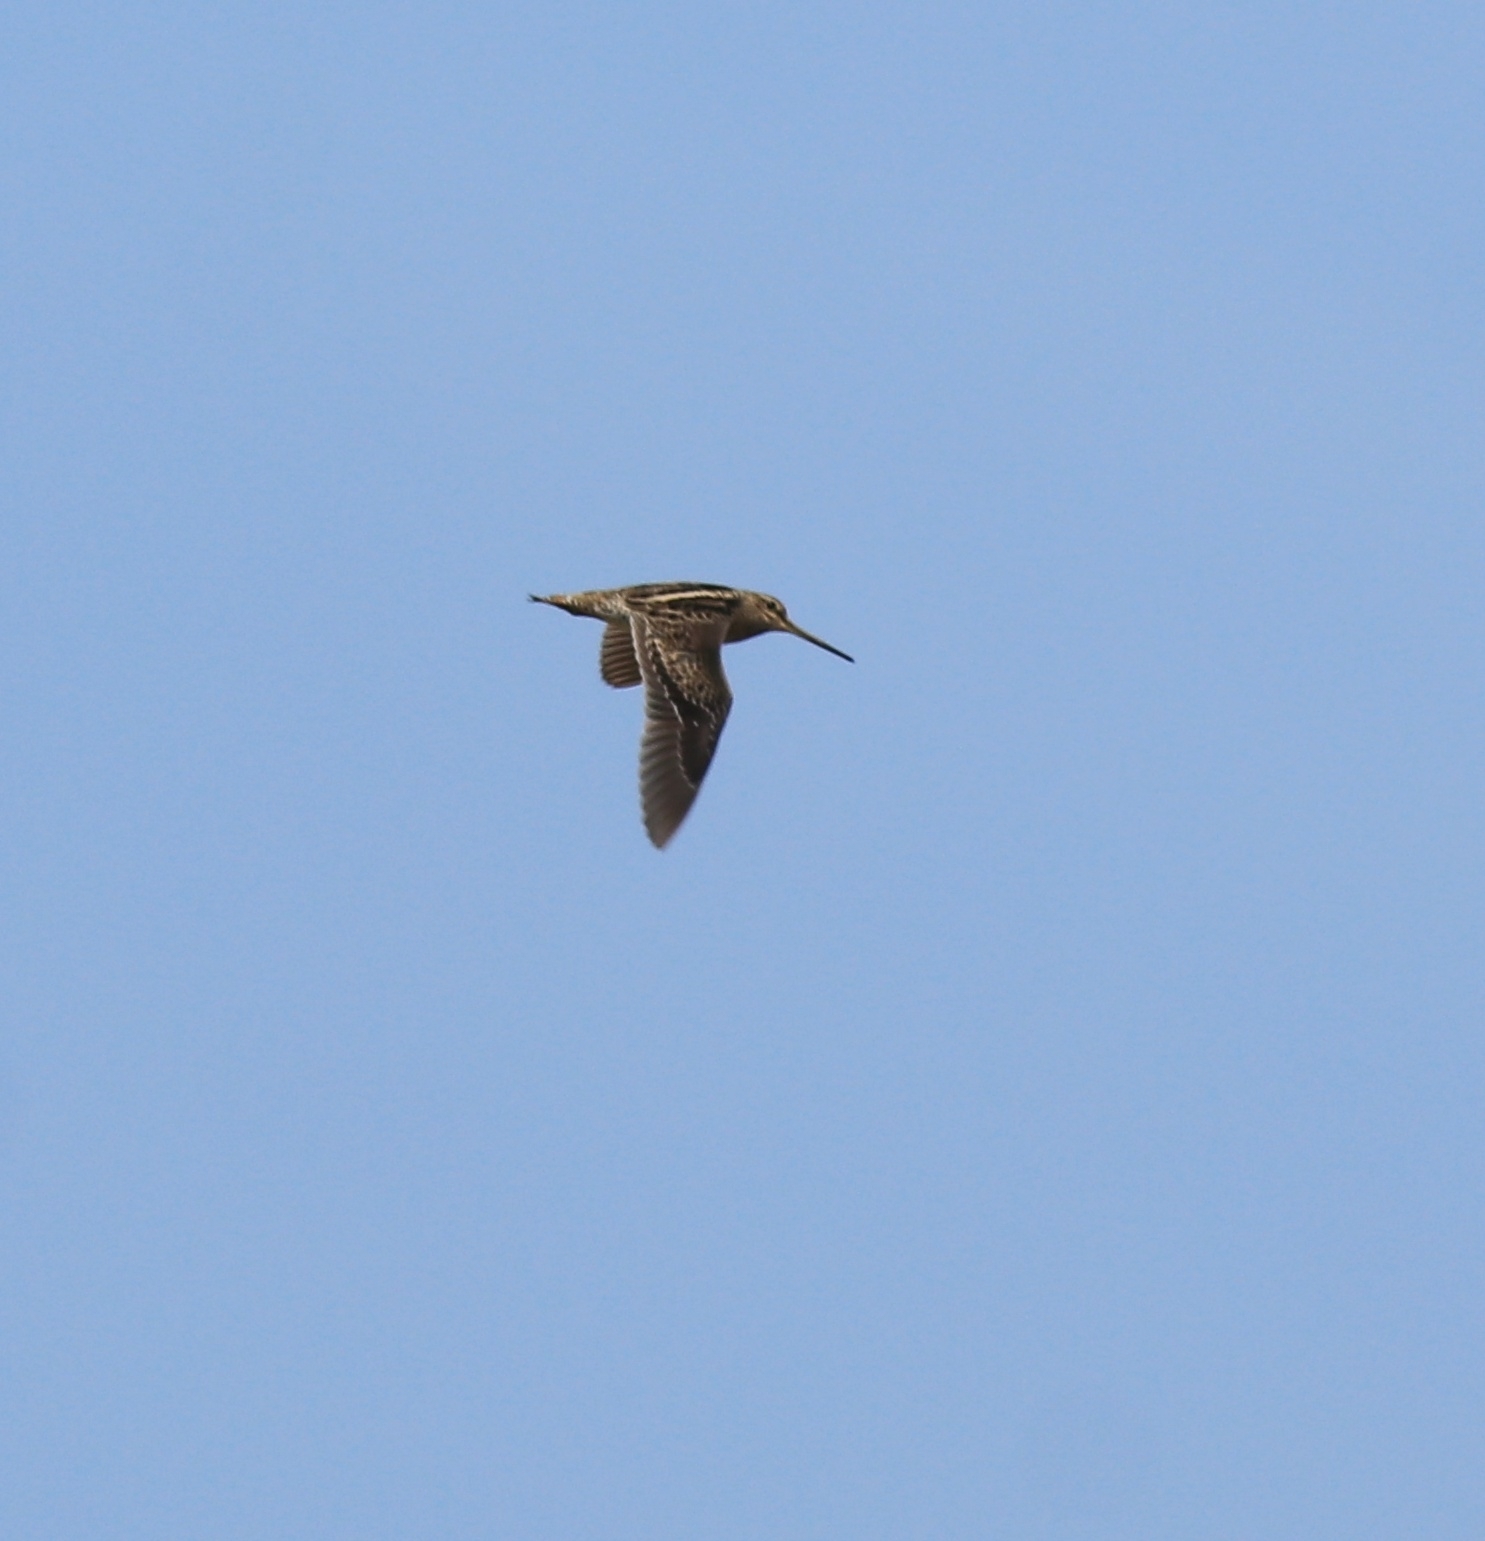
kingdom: Animalia
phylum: Chordata
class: Aves
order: Charadriiformes
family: Scolopacidae
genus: Gallinago
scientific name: Gallinago stenura
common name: Pin-tailed snipe
